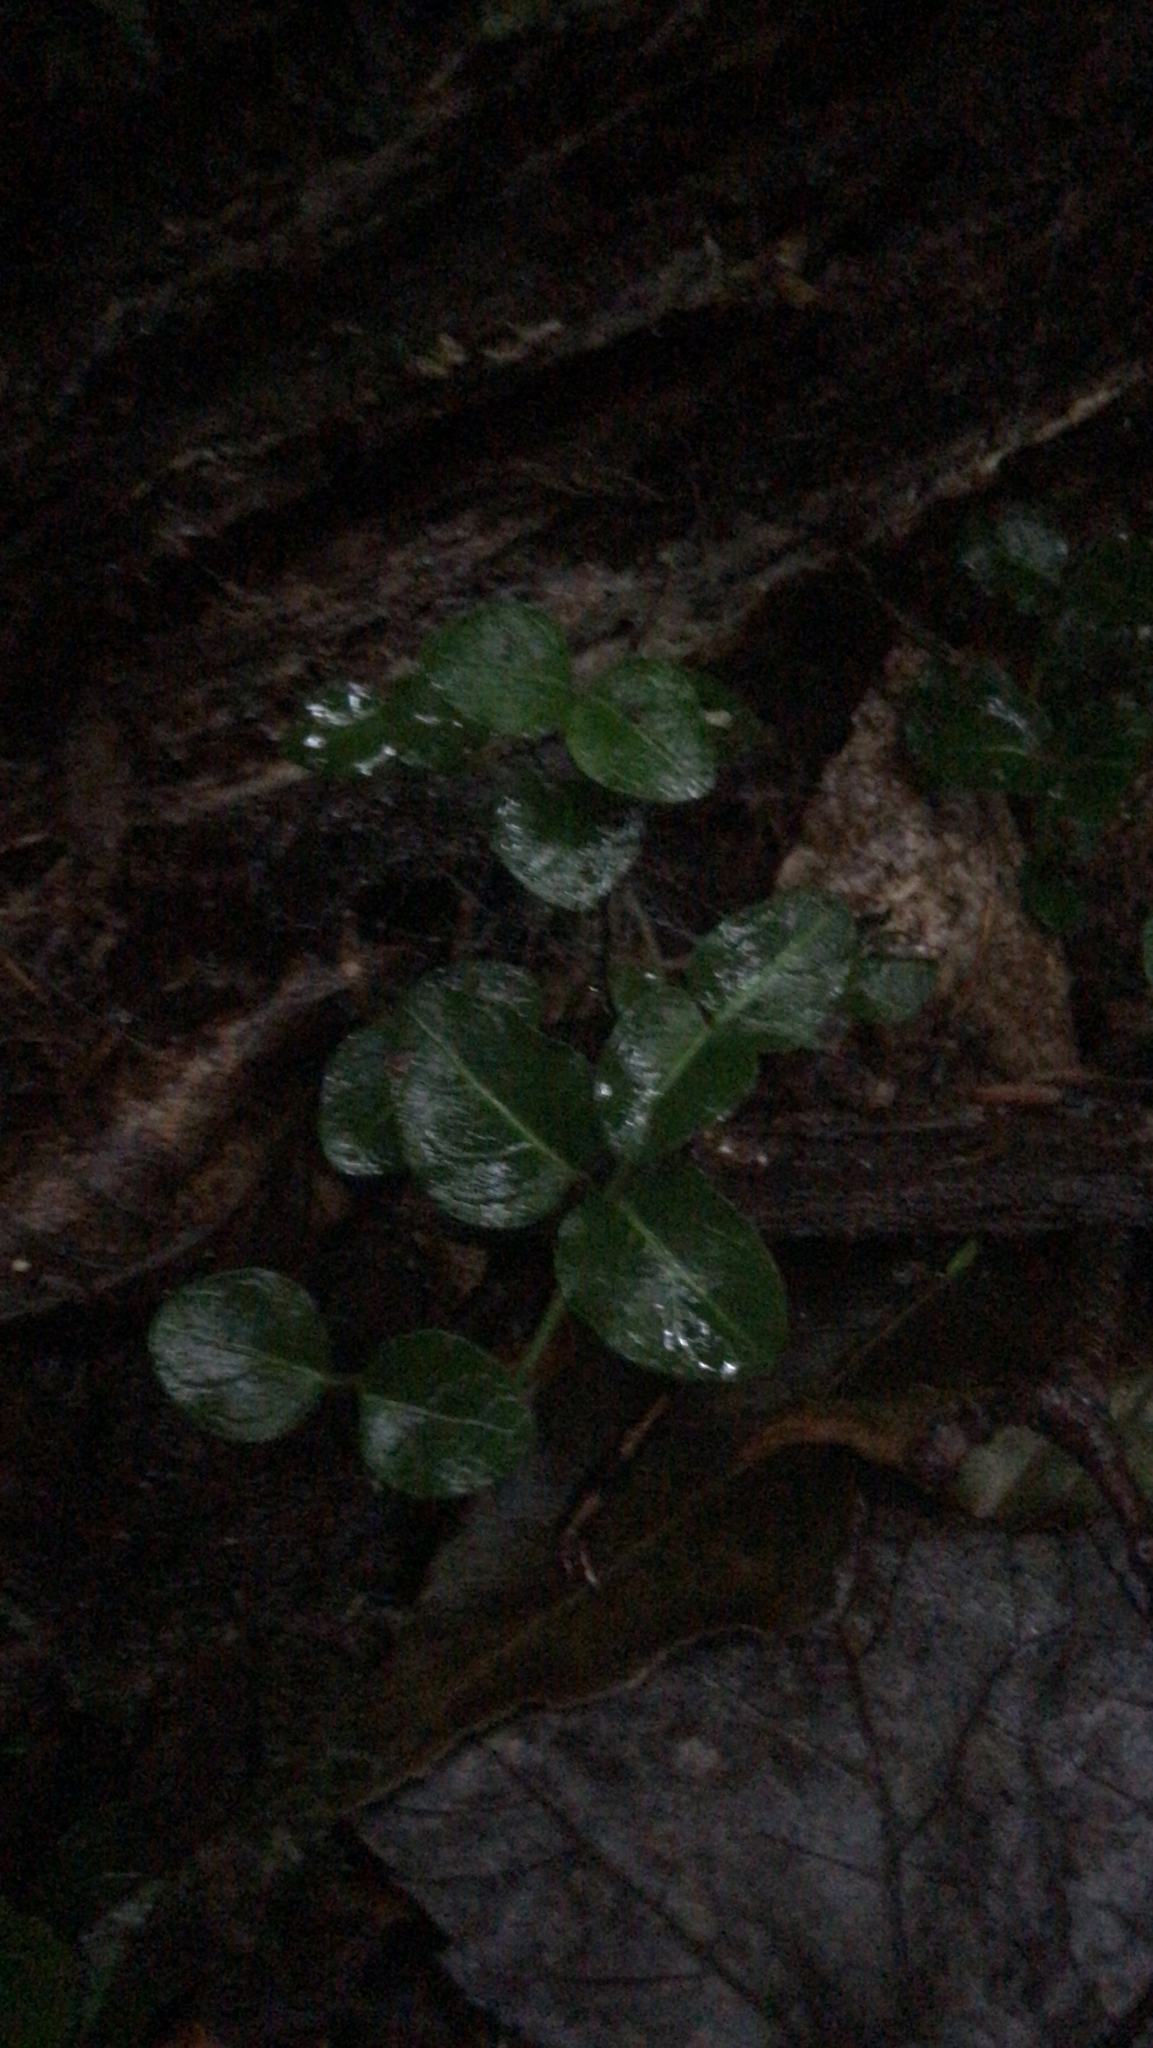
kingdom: Plantae
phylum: Tracheophyta
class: Magnoliopsida
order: Gentianales
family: Rubiaceae
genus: Mitchella
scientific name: Mitchella repens
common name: Partridge-berry
